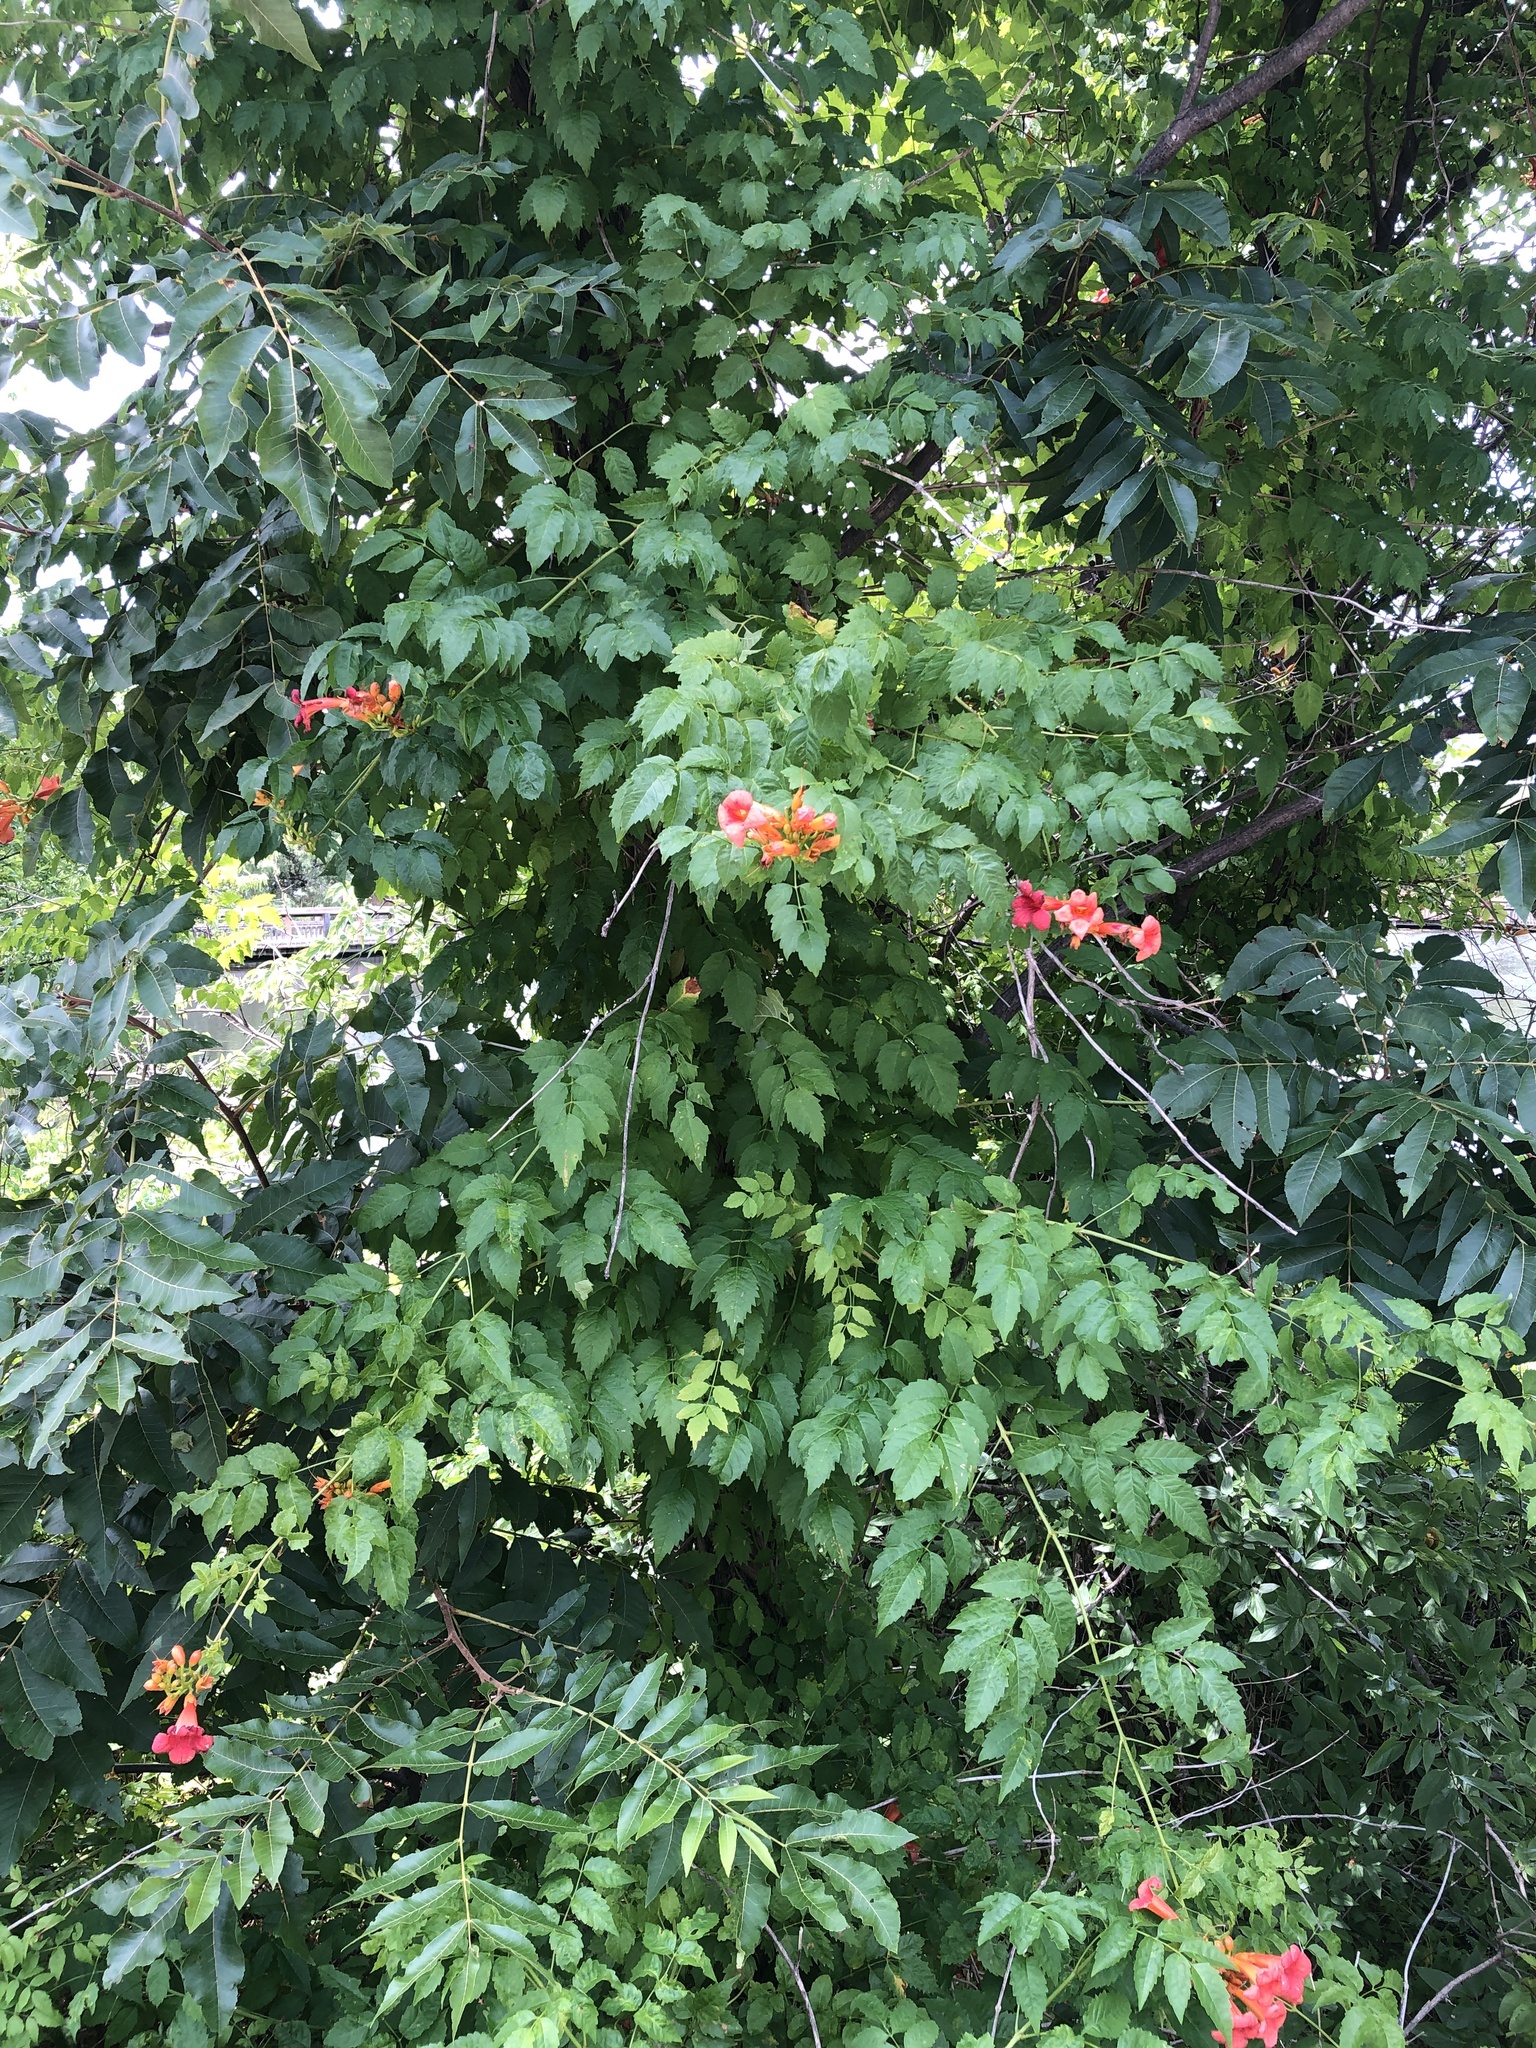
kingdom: Plantae
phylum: Tracheophyta
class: Magnoliopsida
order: Lamiales
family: Bignoniaceae
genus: Campsis
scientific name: Campsis radicans
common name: Trumpet-creeper
